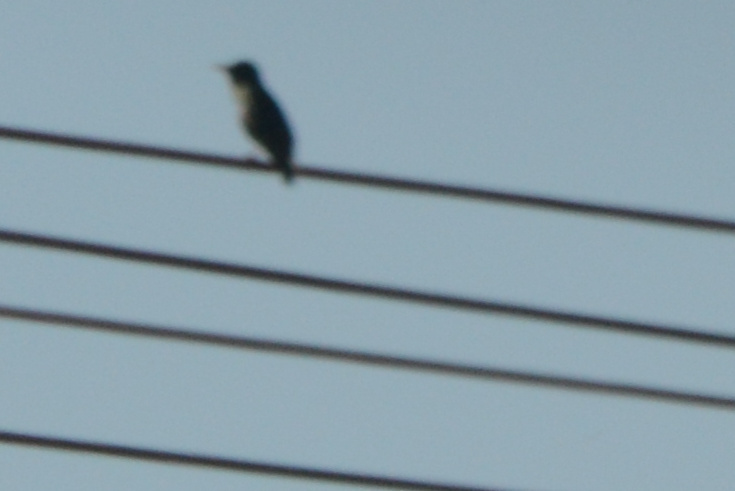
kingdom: Animalia
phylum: Chordata
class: Aves
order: Passeriformes
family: Sturnidae
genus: Sturnus
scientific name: Sturnus vulgaris
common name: Common starling
